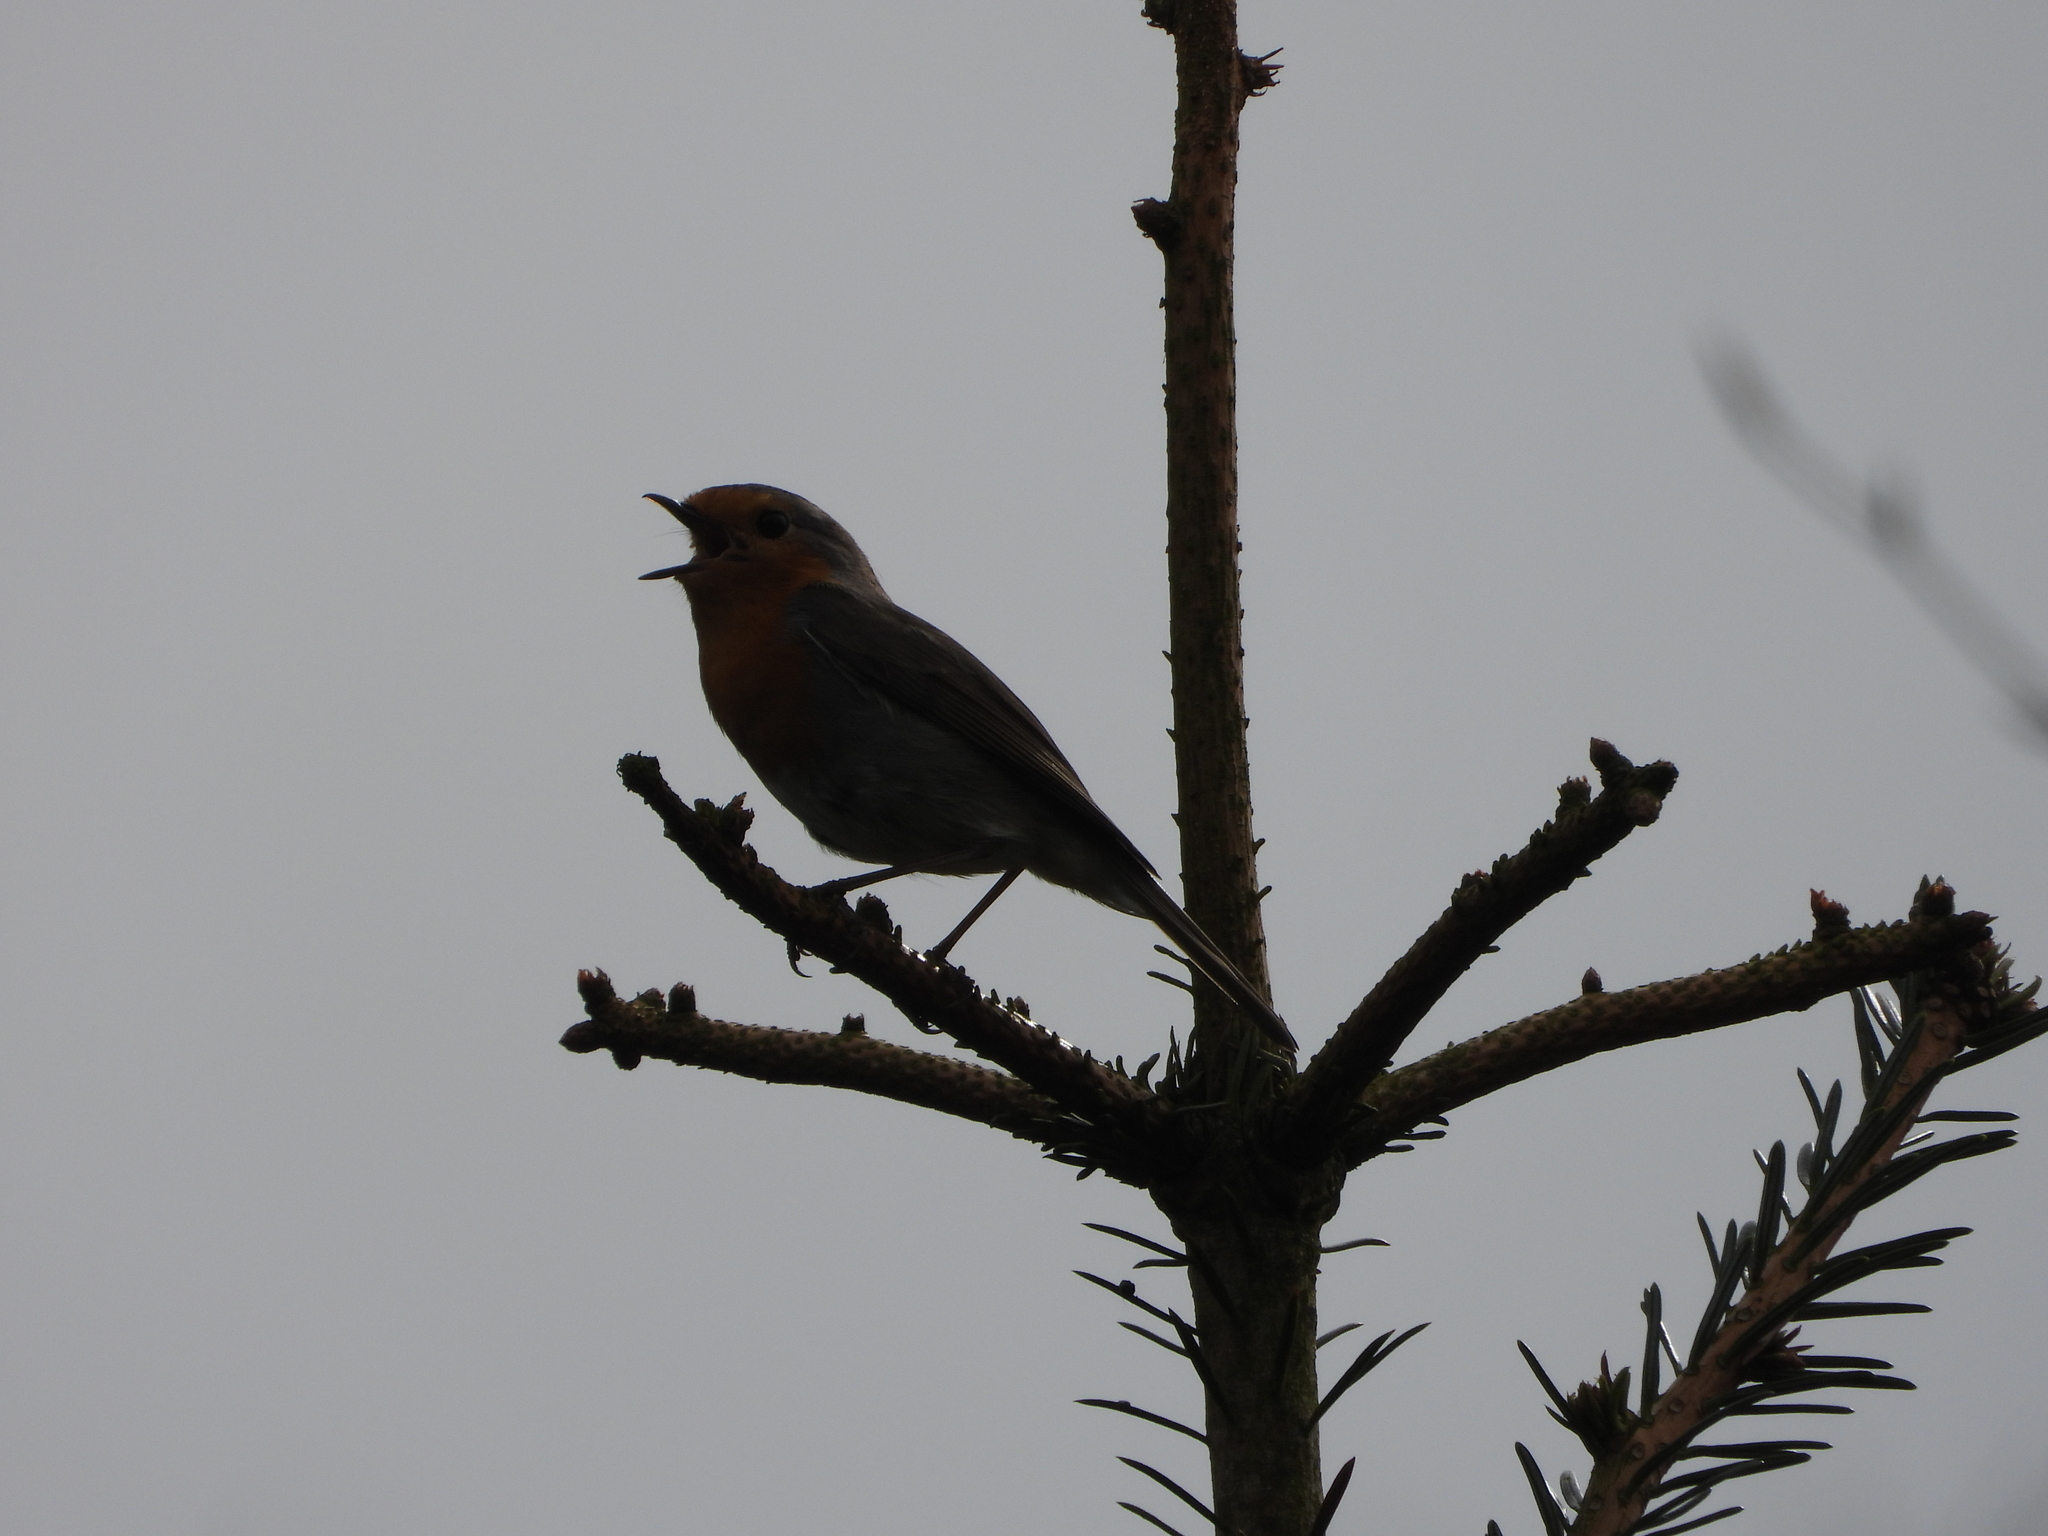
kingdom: Animalia
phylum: Chordata
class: Aves
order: Passeriformes
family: Muscicapidae
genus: Erithacus
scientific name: Erithacus rubecula
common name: European robin
